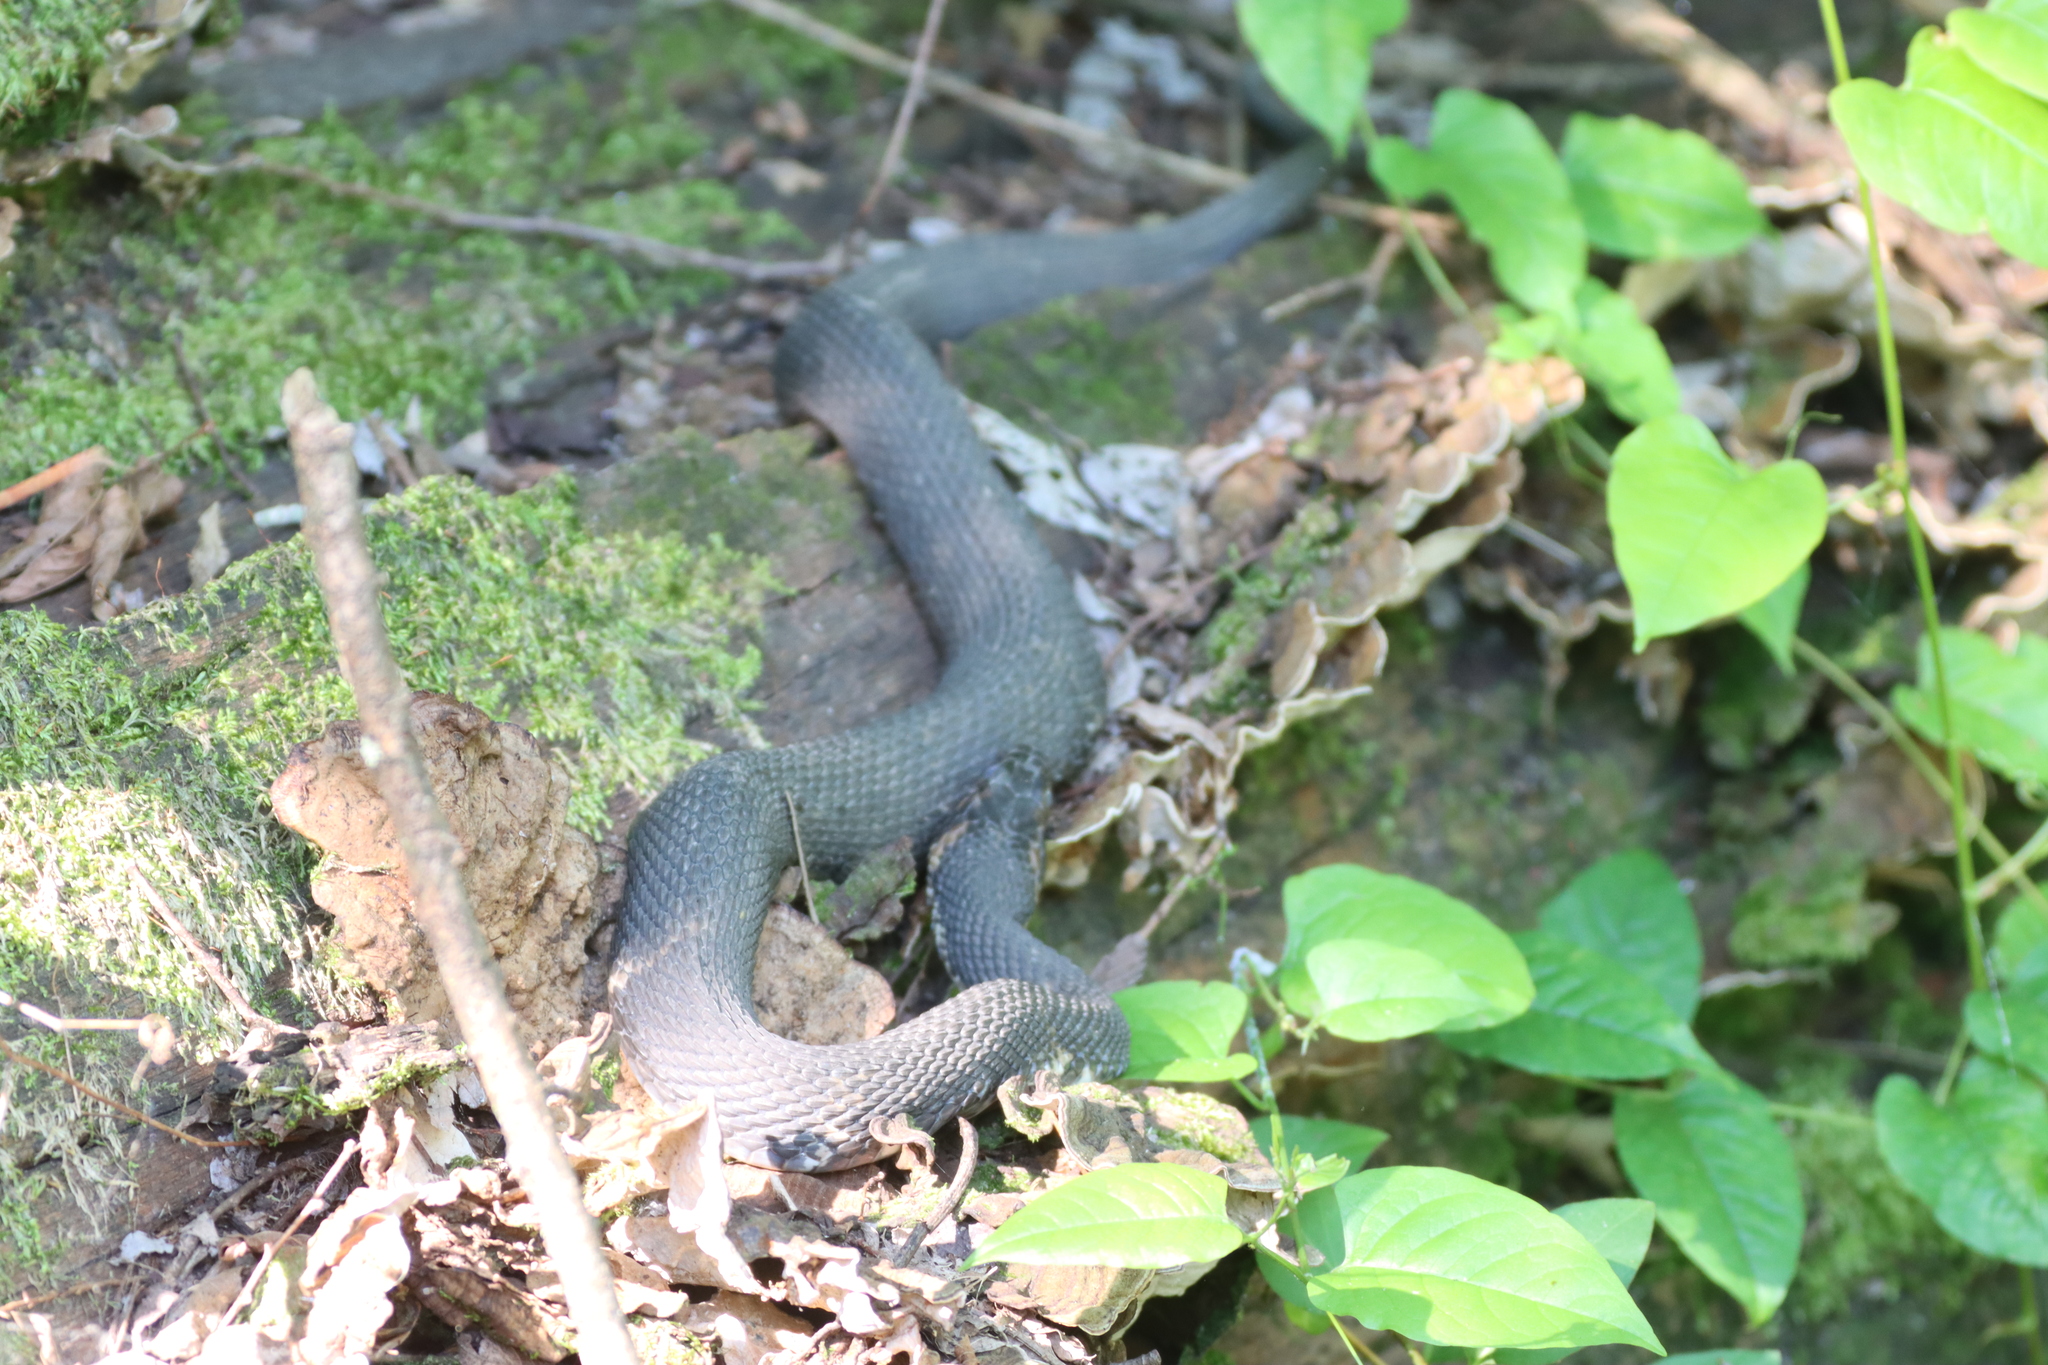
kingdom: Animalia
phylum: Chordata
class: Squamata
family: Colubridae
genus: Nerodia
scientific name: Nerodia fasciata
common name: Southern water snake
